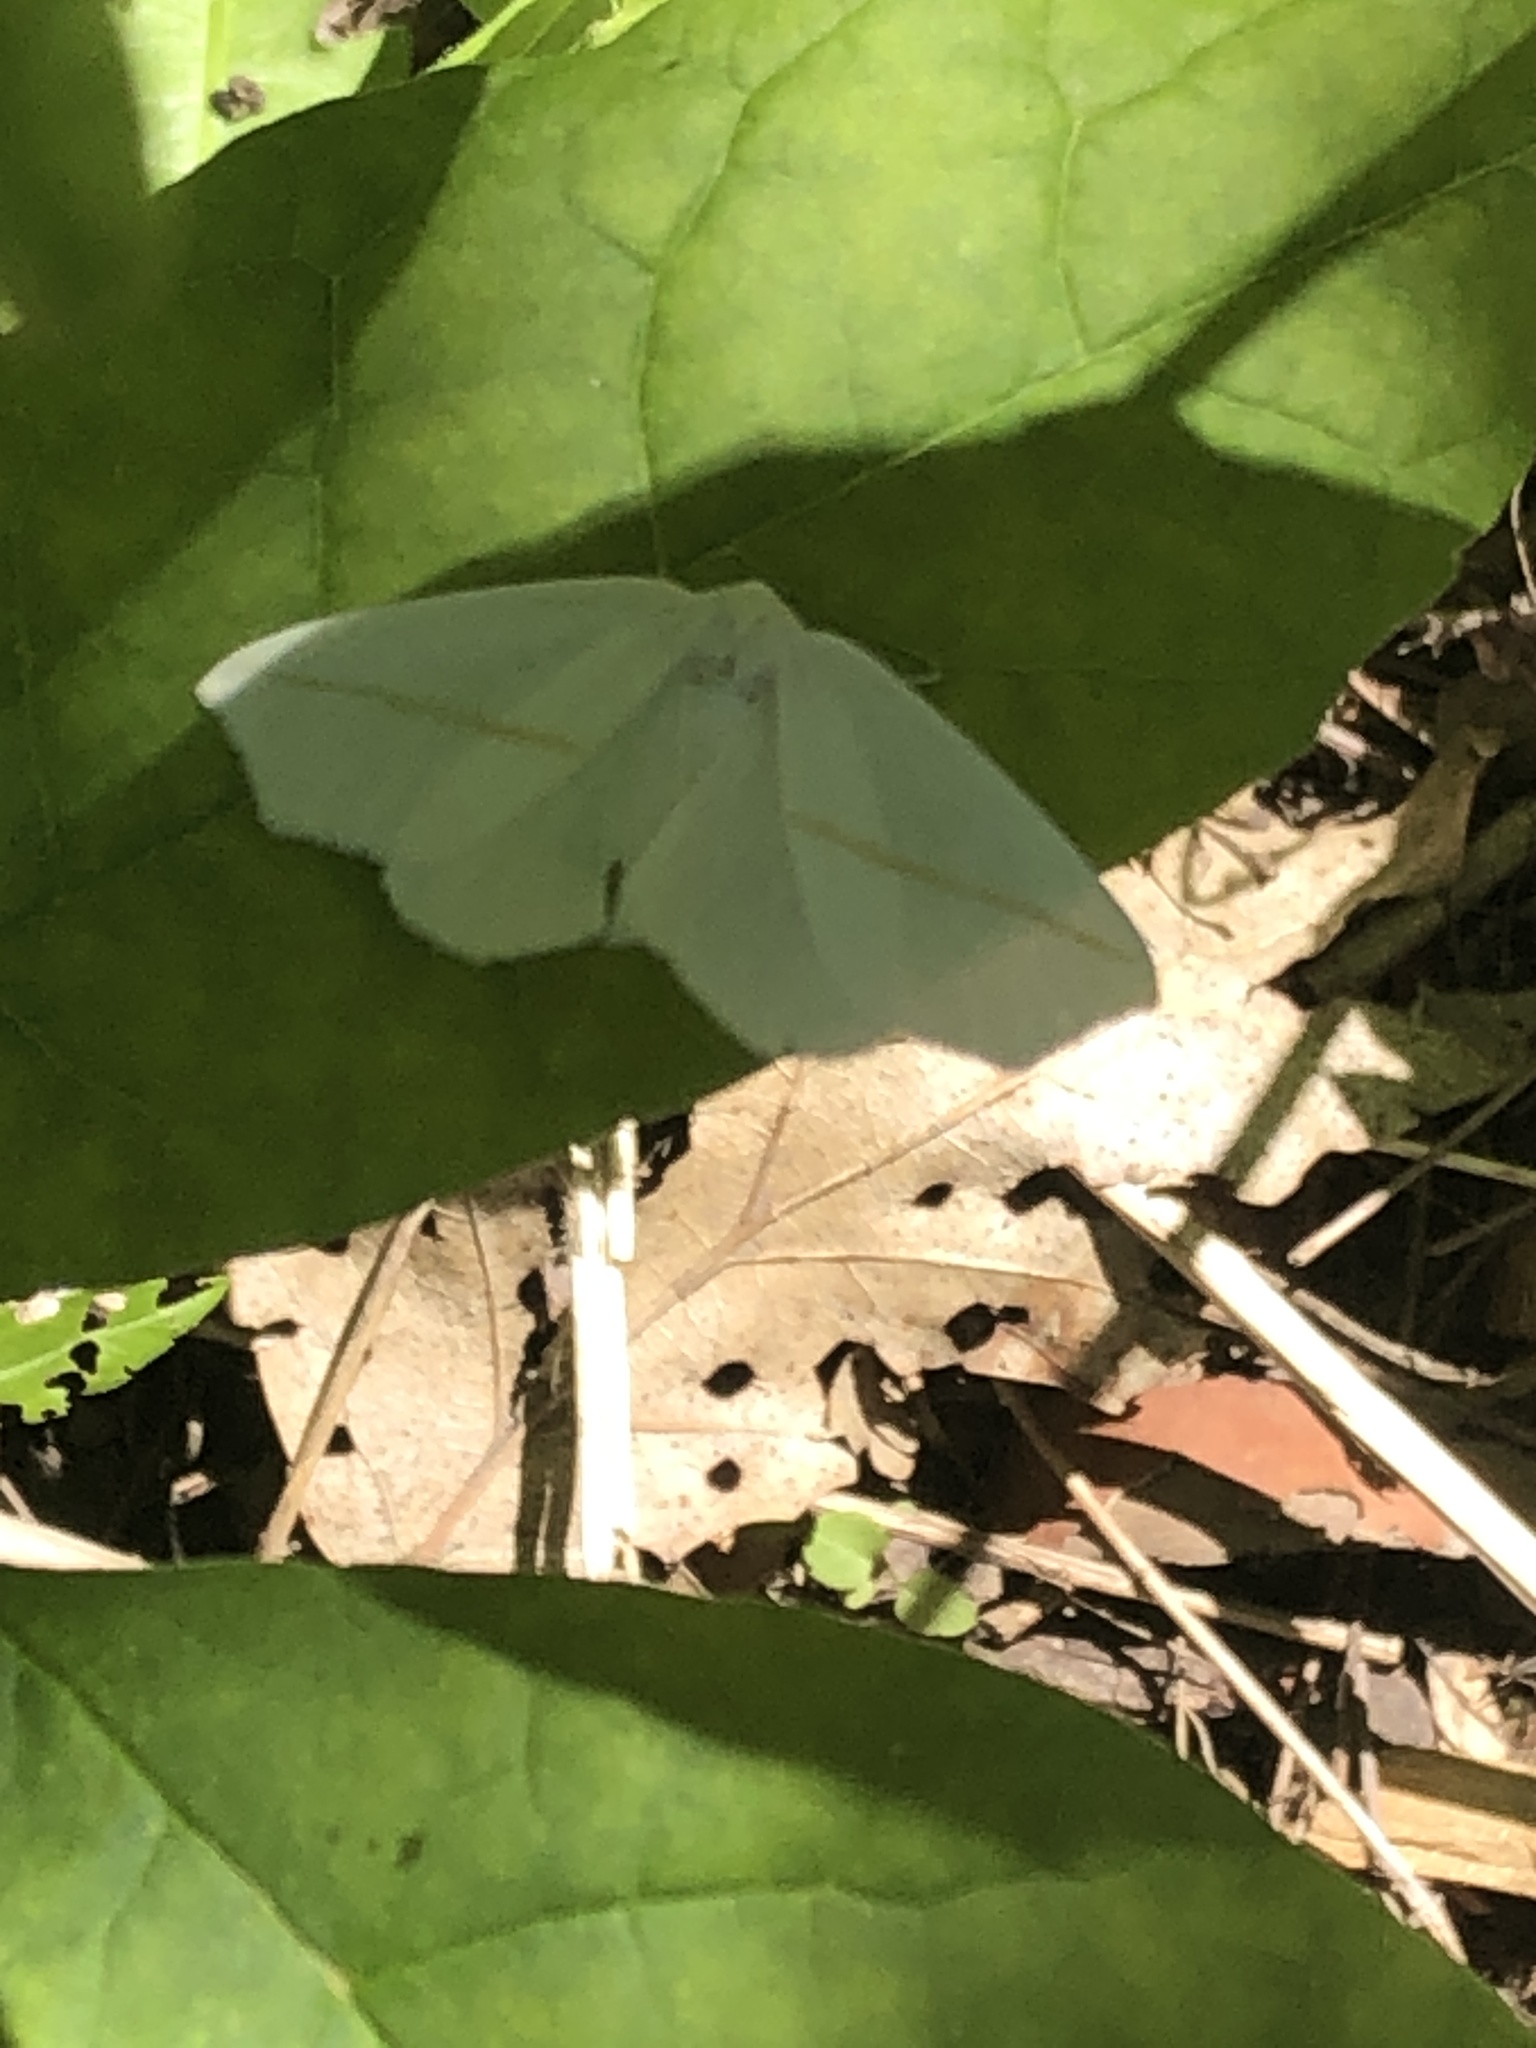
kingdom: Animalia
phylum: Arthropoda
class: Insecta
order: Lepidoptera
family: Geometridae
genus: Tetracis
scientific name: Tetracis cachexiata
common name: White slant-line
